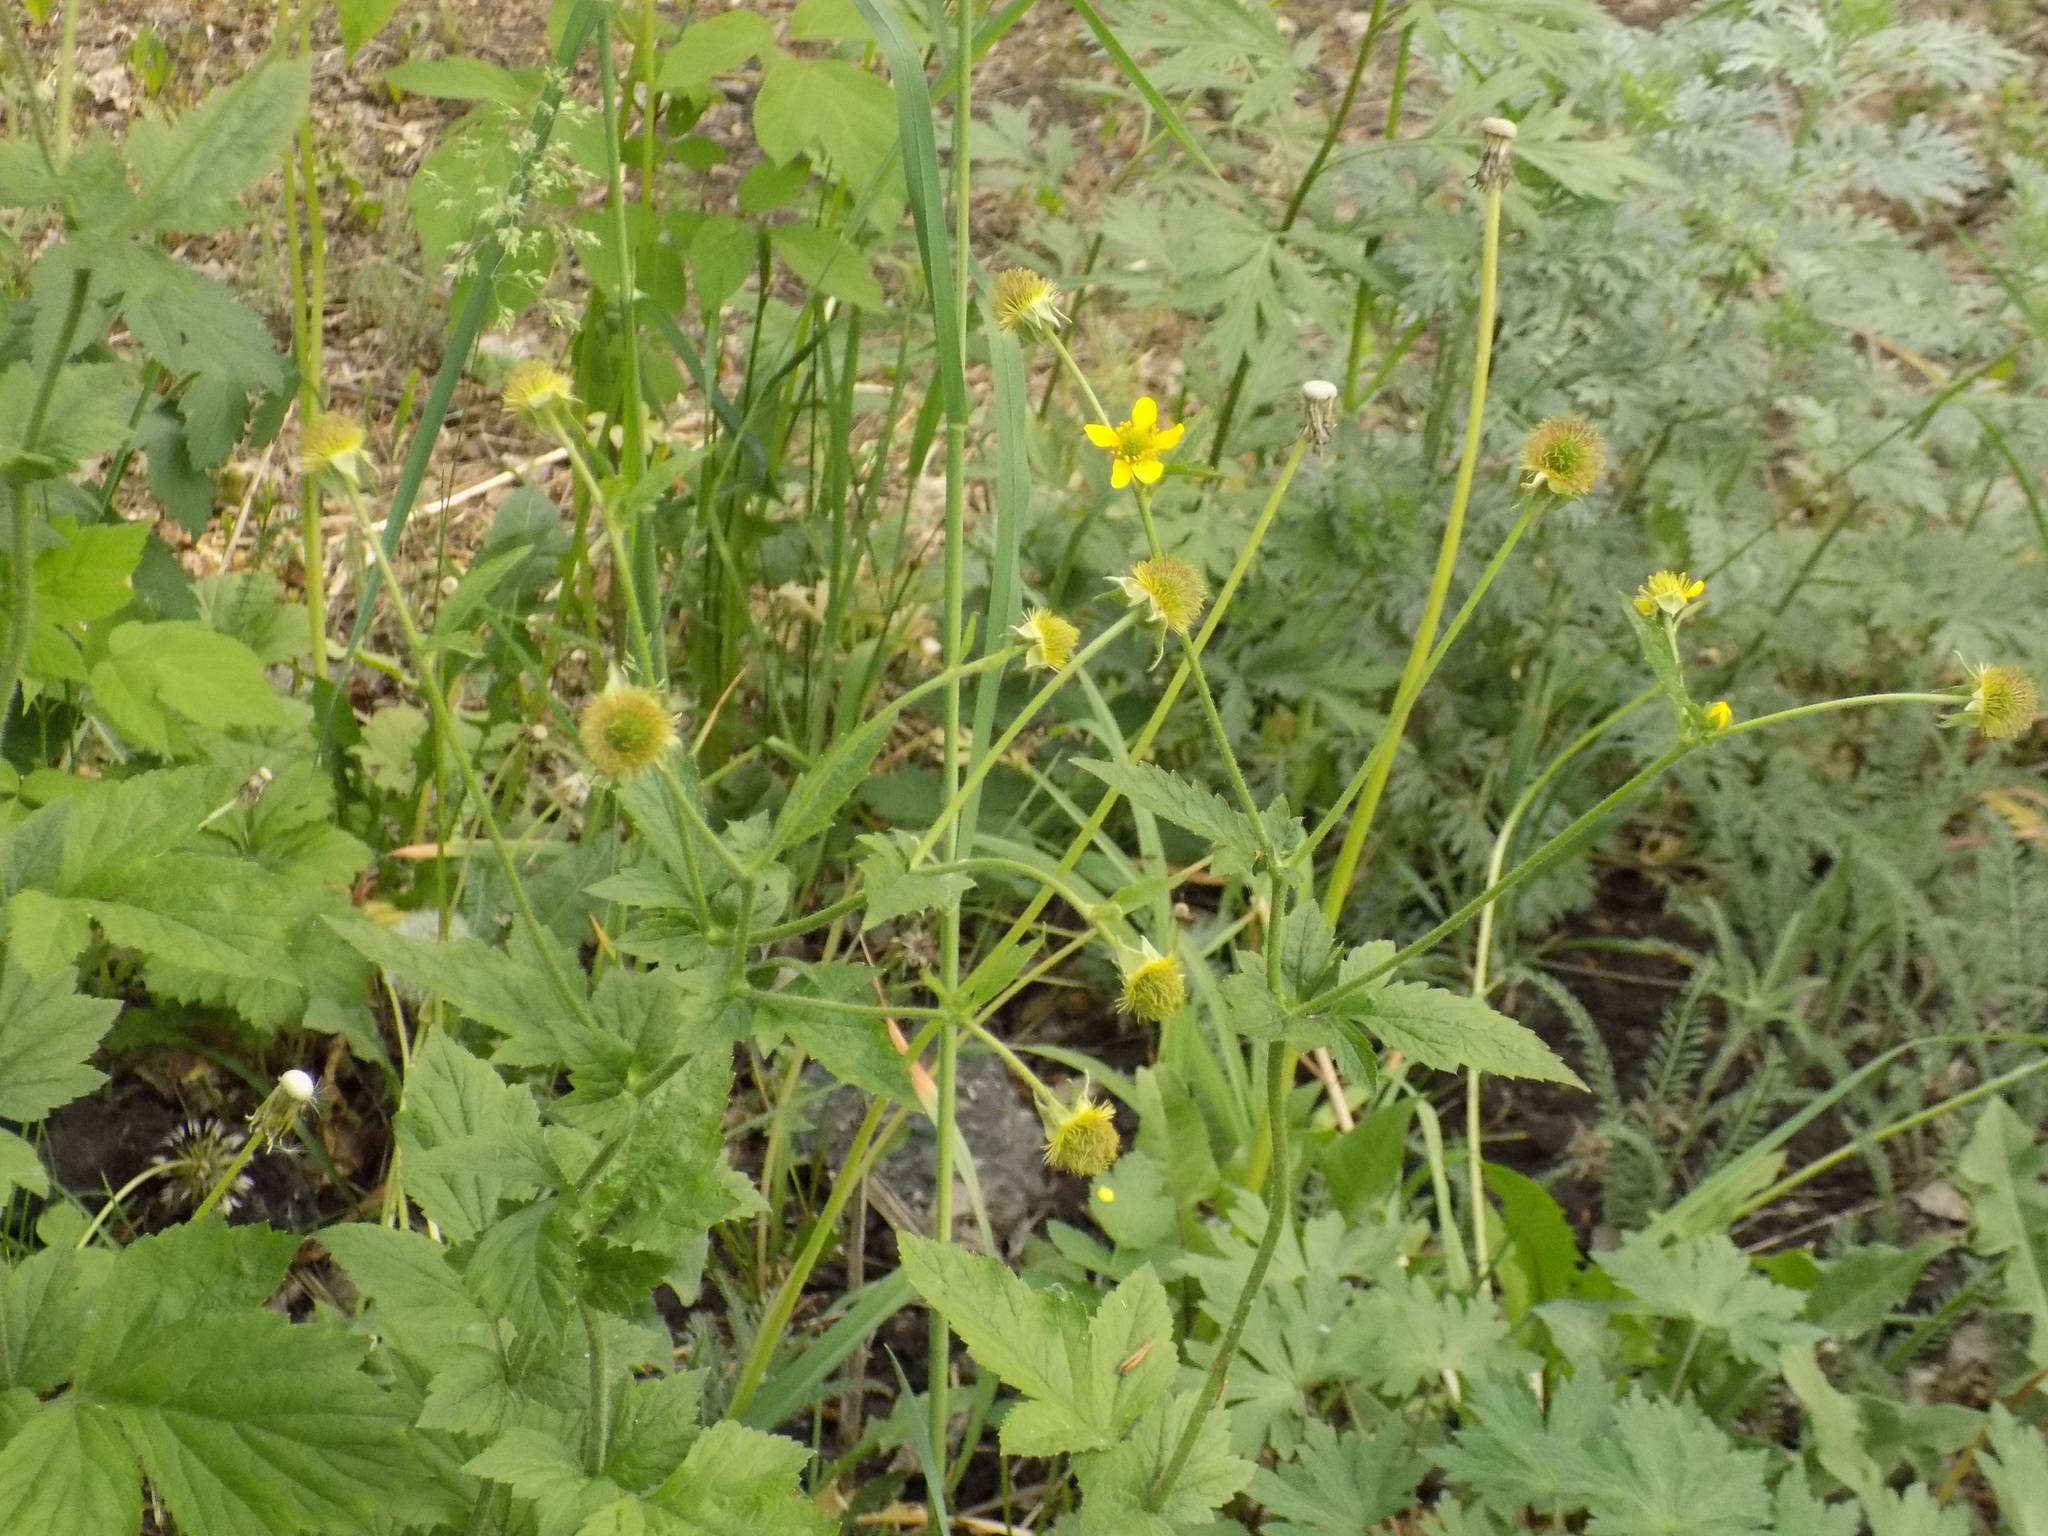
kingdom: Plantae
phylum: Tracheophyta
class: Magnoliopsida
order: Rosales
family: Rosaceae
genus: Geum
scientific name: Geum aleppicum
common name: Yellow avens
